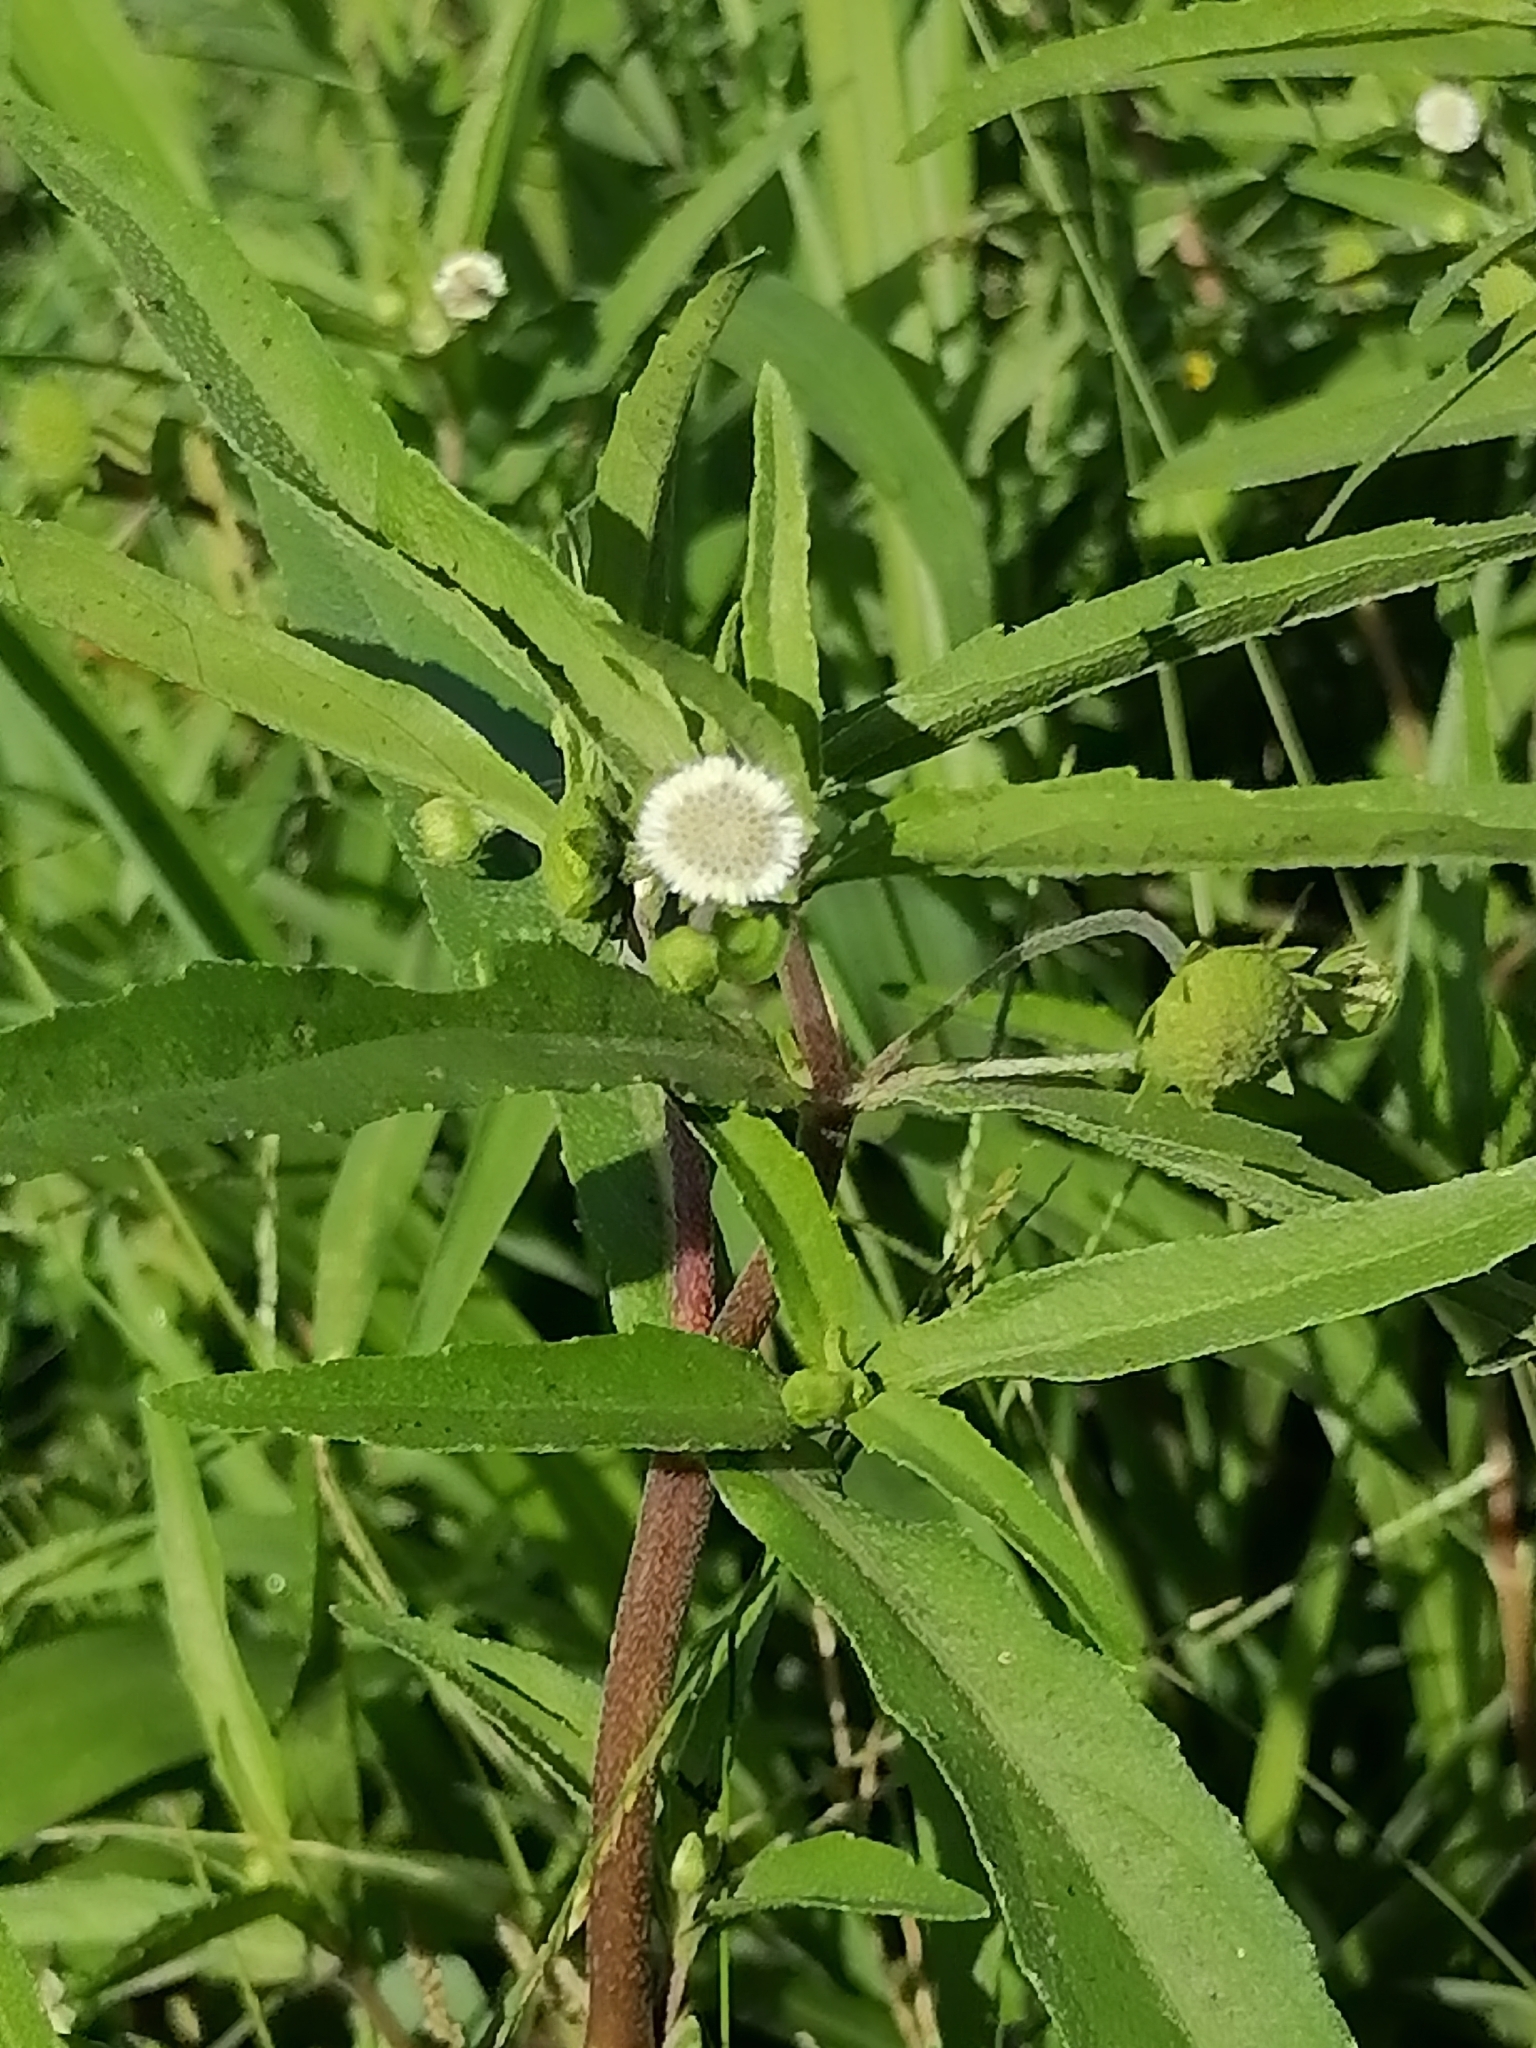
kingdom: Plantae
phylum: Tracheophyta
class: Magnoliopsida
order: Asterales
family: Asteraceae
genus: Eclipta
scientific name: Eclipta prostrata
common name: False daisy
